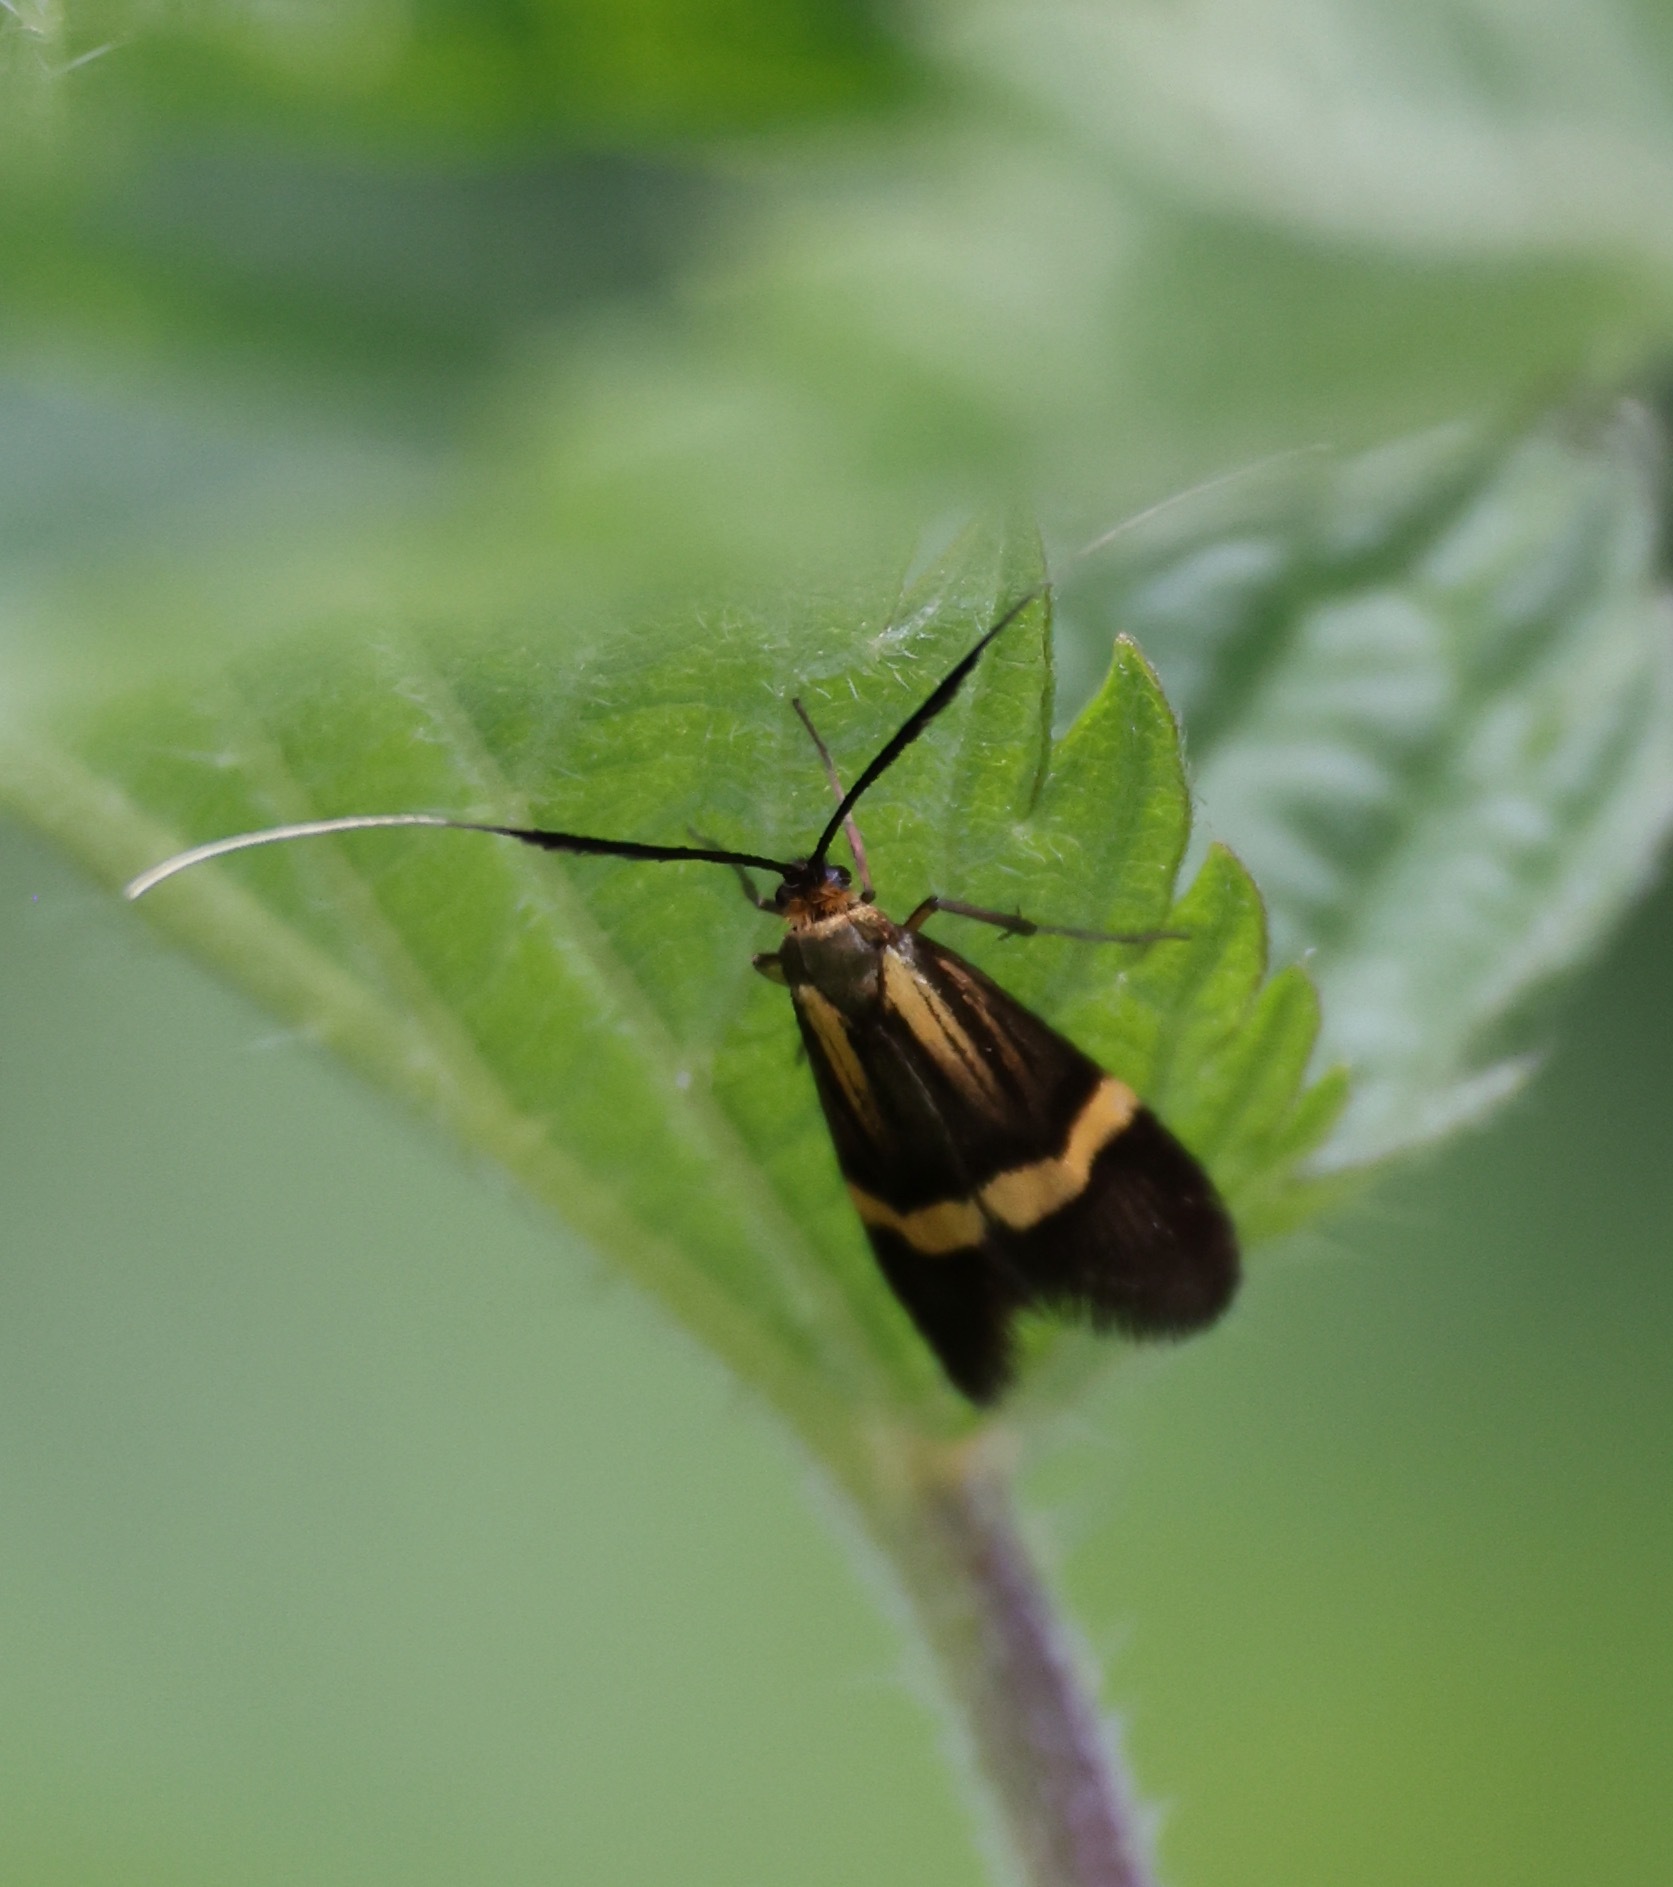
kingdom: Animalia
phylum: Arthropoda
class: Insecta
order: Lepidoptera
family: Adelidae
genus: Nemophora
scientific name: Nemophora degeerella
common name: Yellow-barred long-horn
